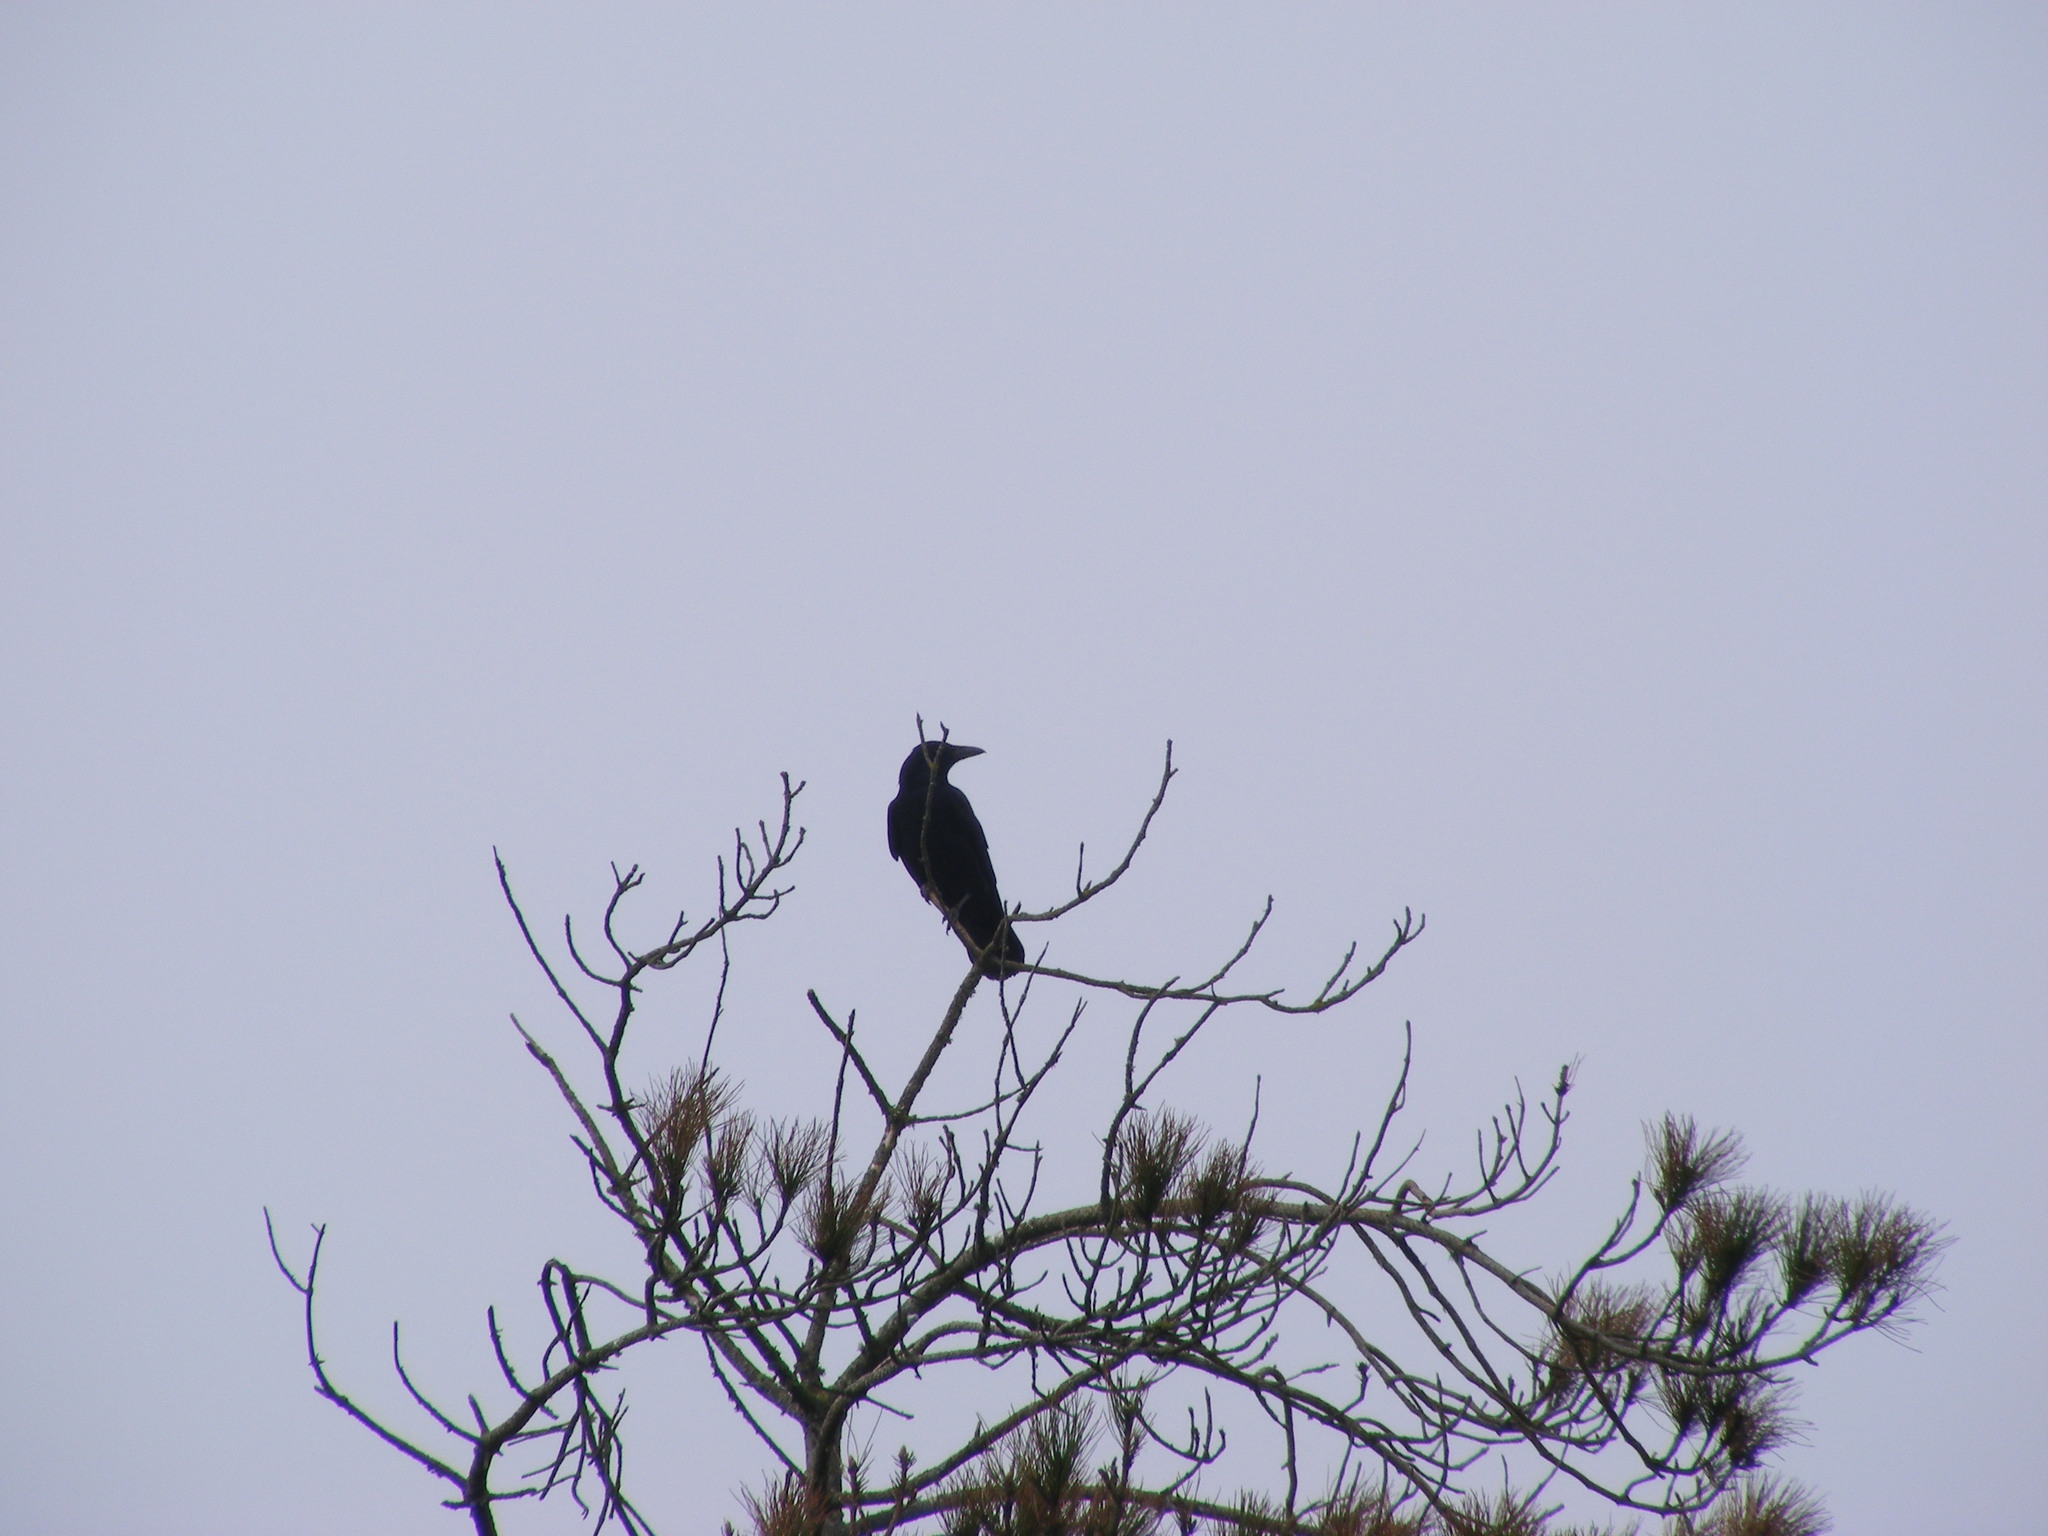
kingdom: Animalia
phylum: Chordata
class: Aves
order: Passeriformes
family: Corvidae
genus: Corvus
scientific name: Corvus corone
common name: Carrion crow
